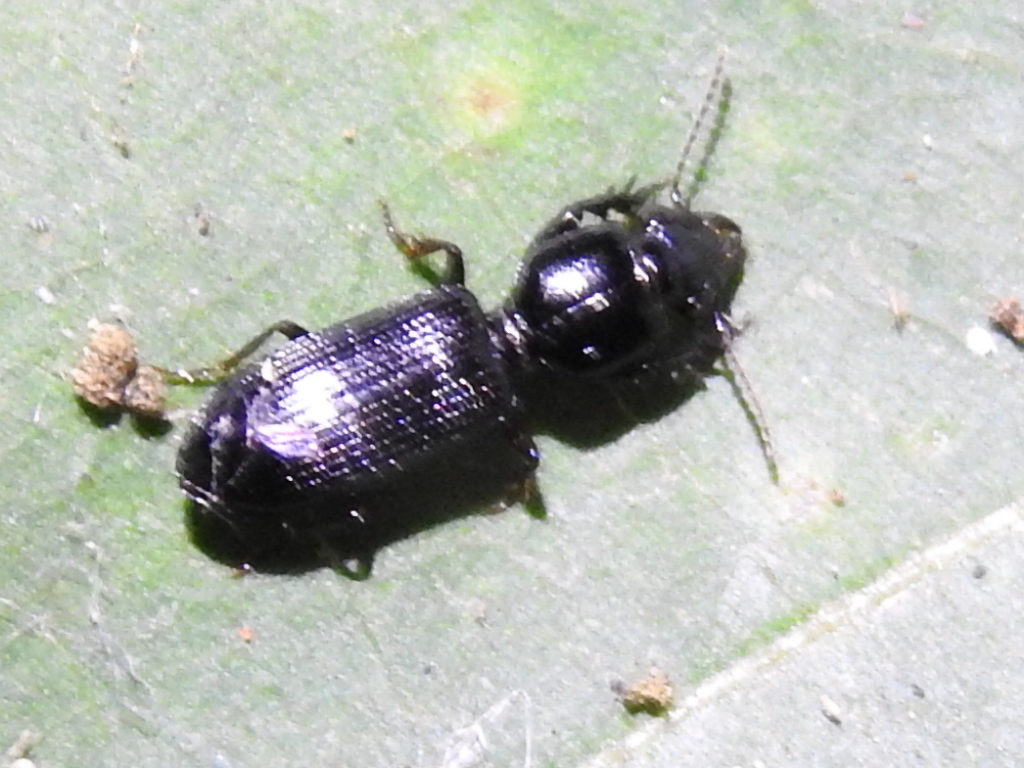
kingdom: Animalia
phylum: Arthropoda
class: Insecta
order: Coleoptera
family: Carabidae
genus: Semiclivina
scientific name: Semiclivina dentipes
